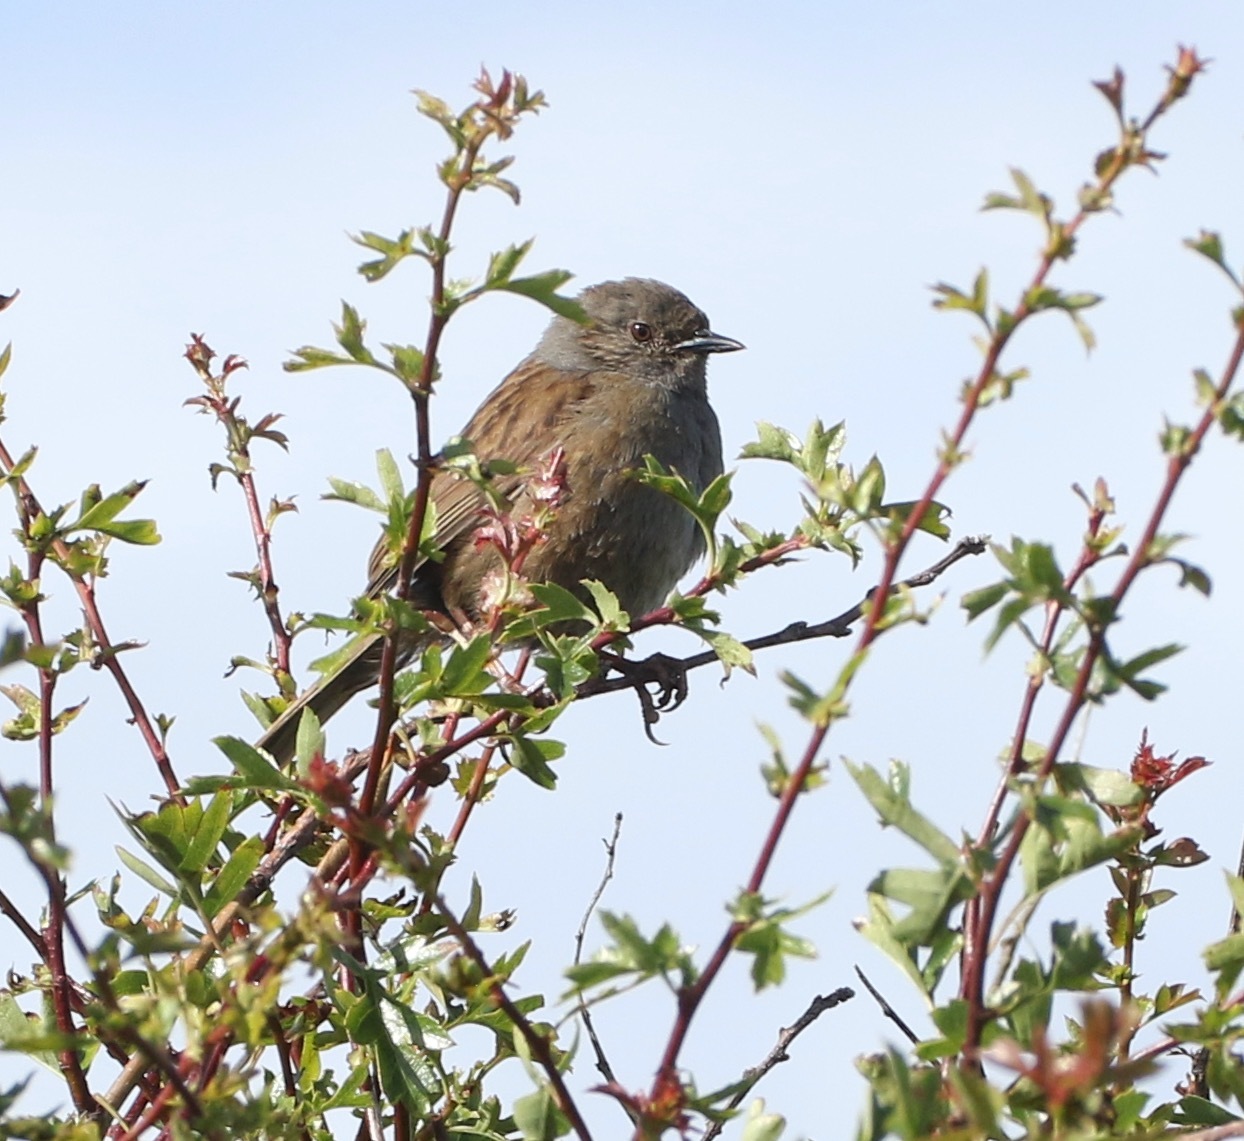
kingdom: Animalia
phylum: Chordata
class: Aves
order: Passeriformes
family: Prunellidae
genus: Prunella
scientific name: Prunella modularis
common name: Dunnock
